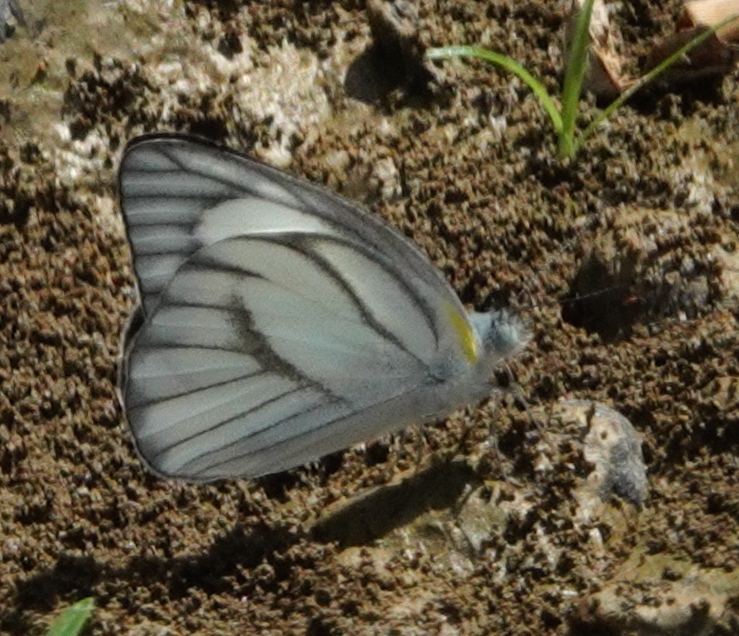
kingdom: Animalia
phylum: Arthropoda
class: Insecta
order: Lepidoptera
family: Pieridae
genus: Appias
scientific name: Appias libythea
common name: Striped albatross
